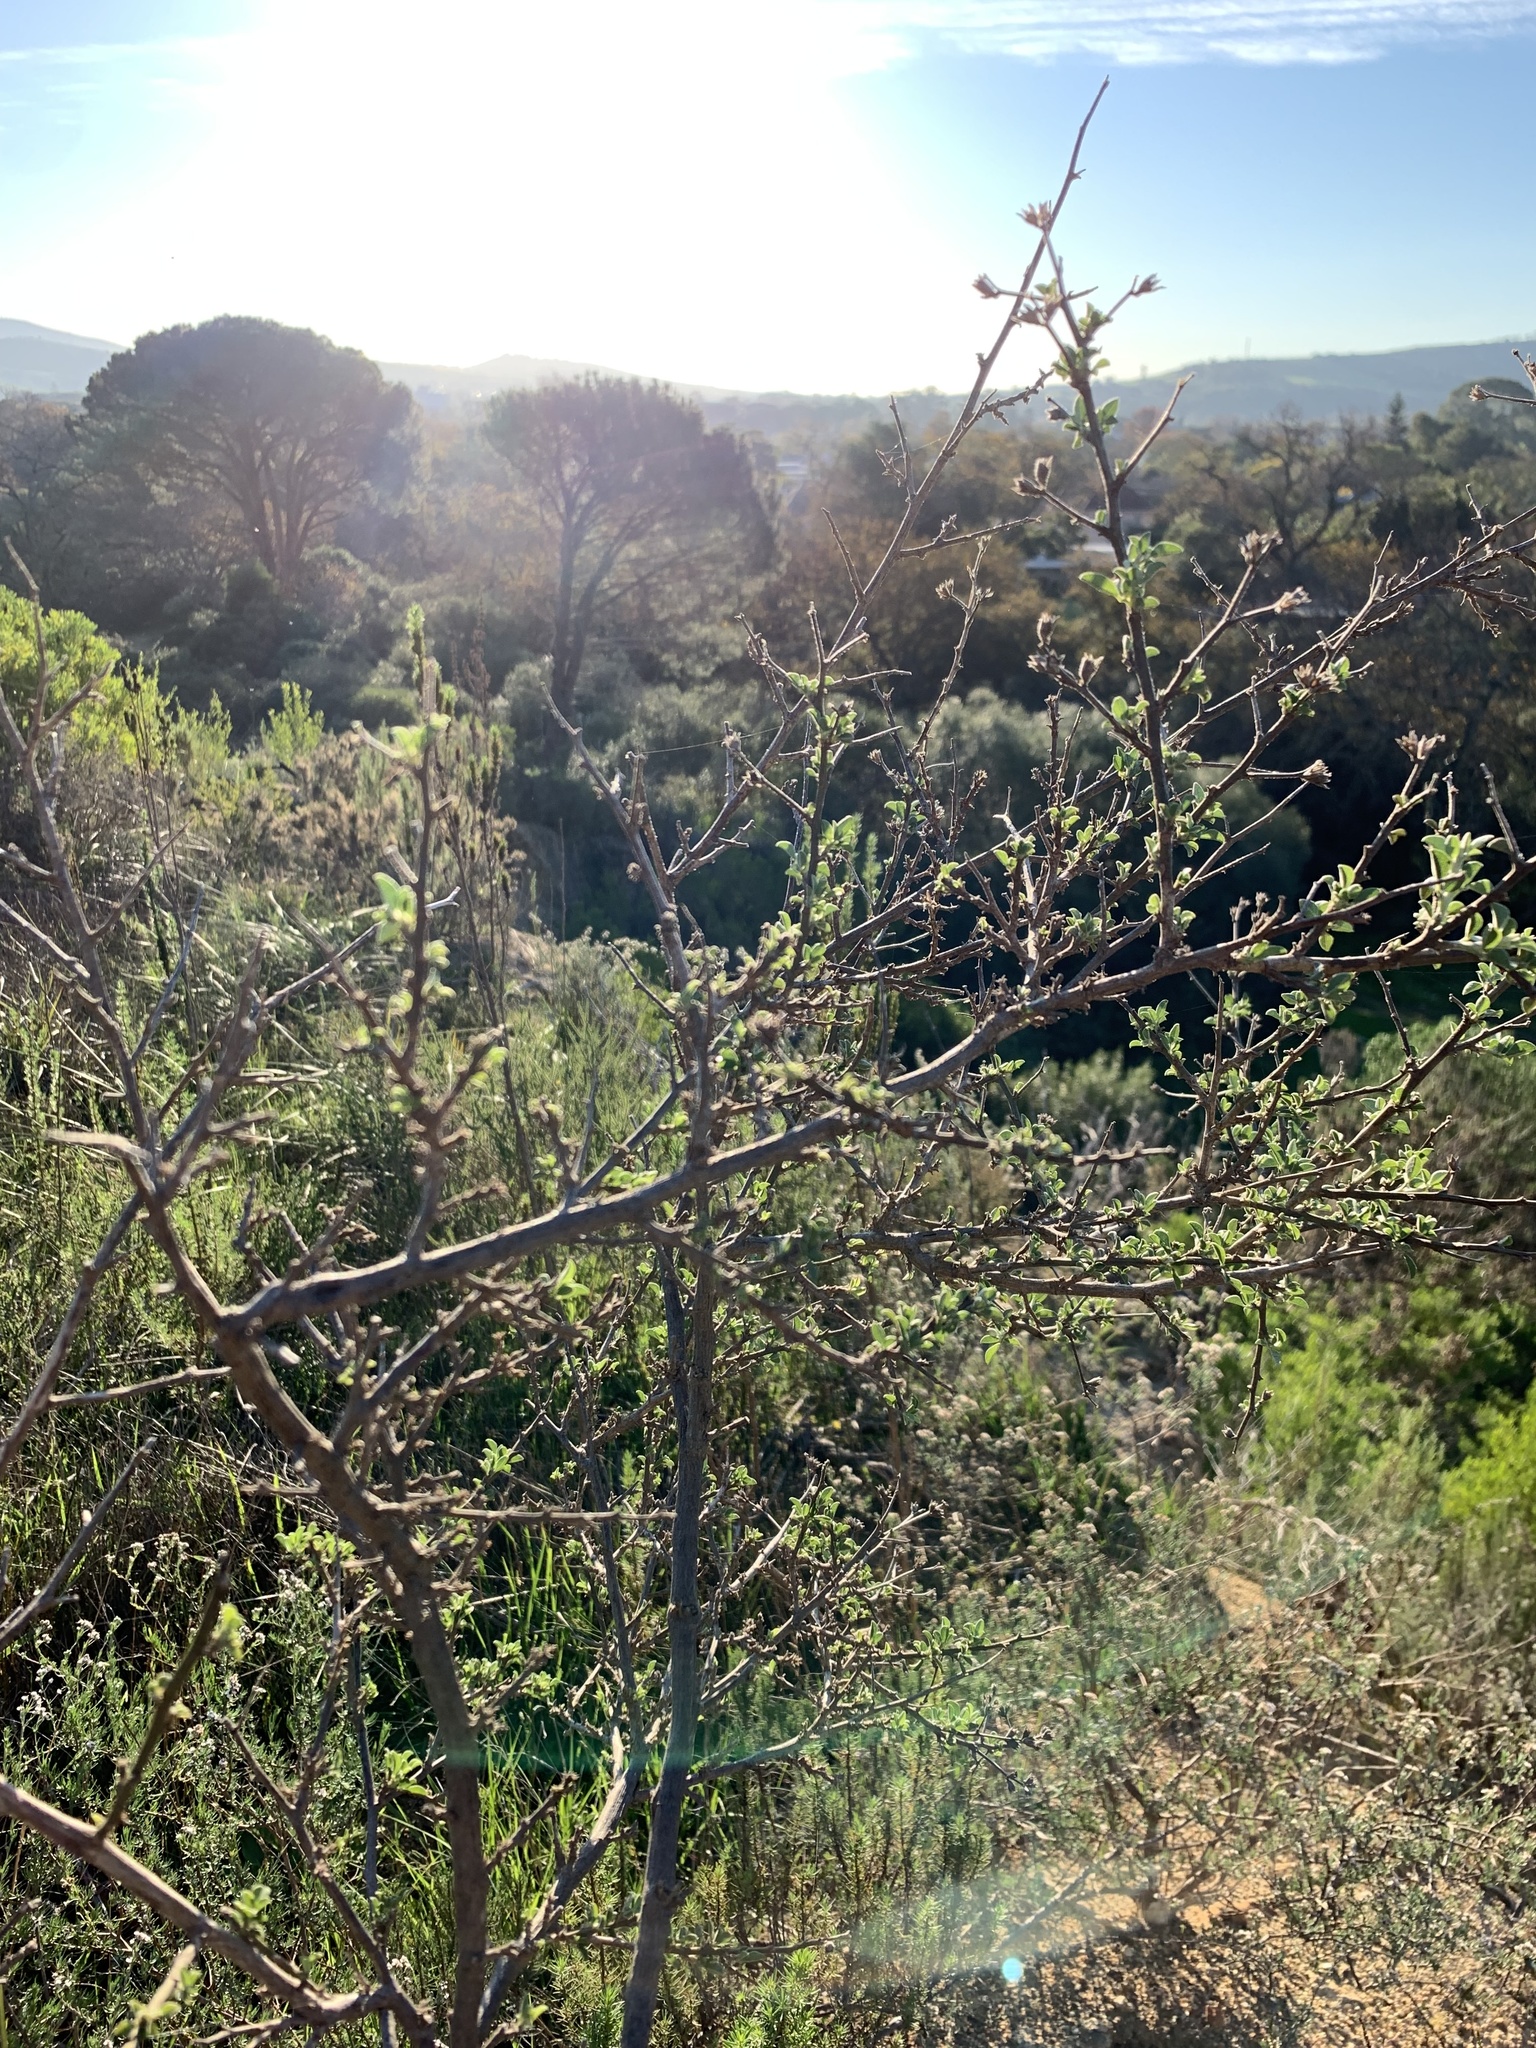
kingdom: Plantae
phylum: Tracheophyta
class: Magnoliopsida
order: Fabales
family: Fabaceae
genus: Psoralea
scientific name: Psoralea hirta
